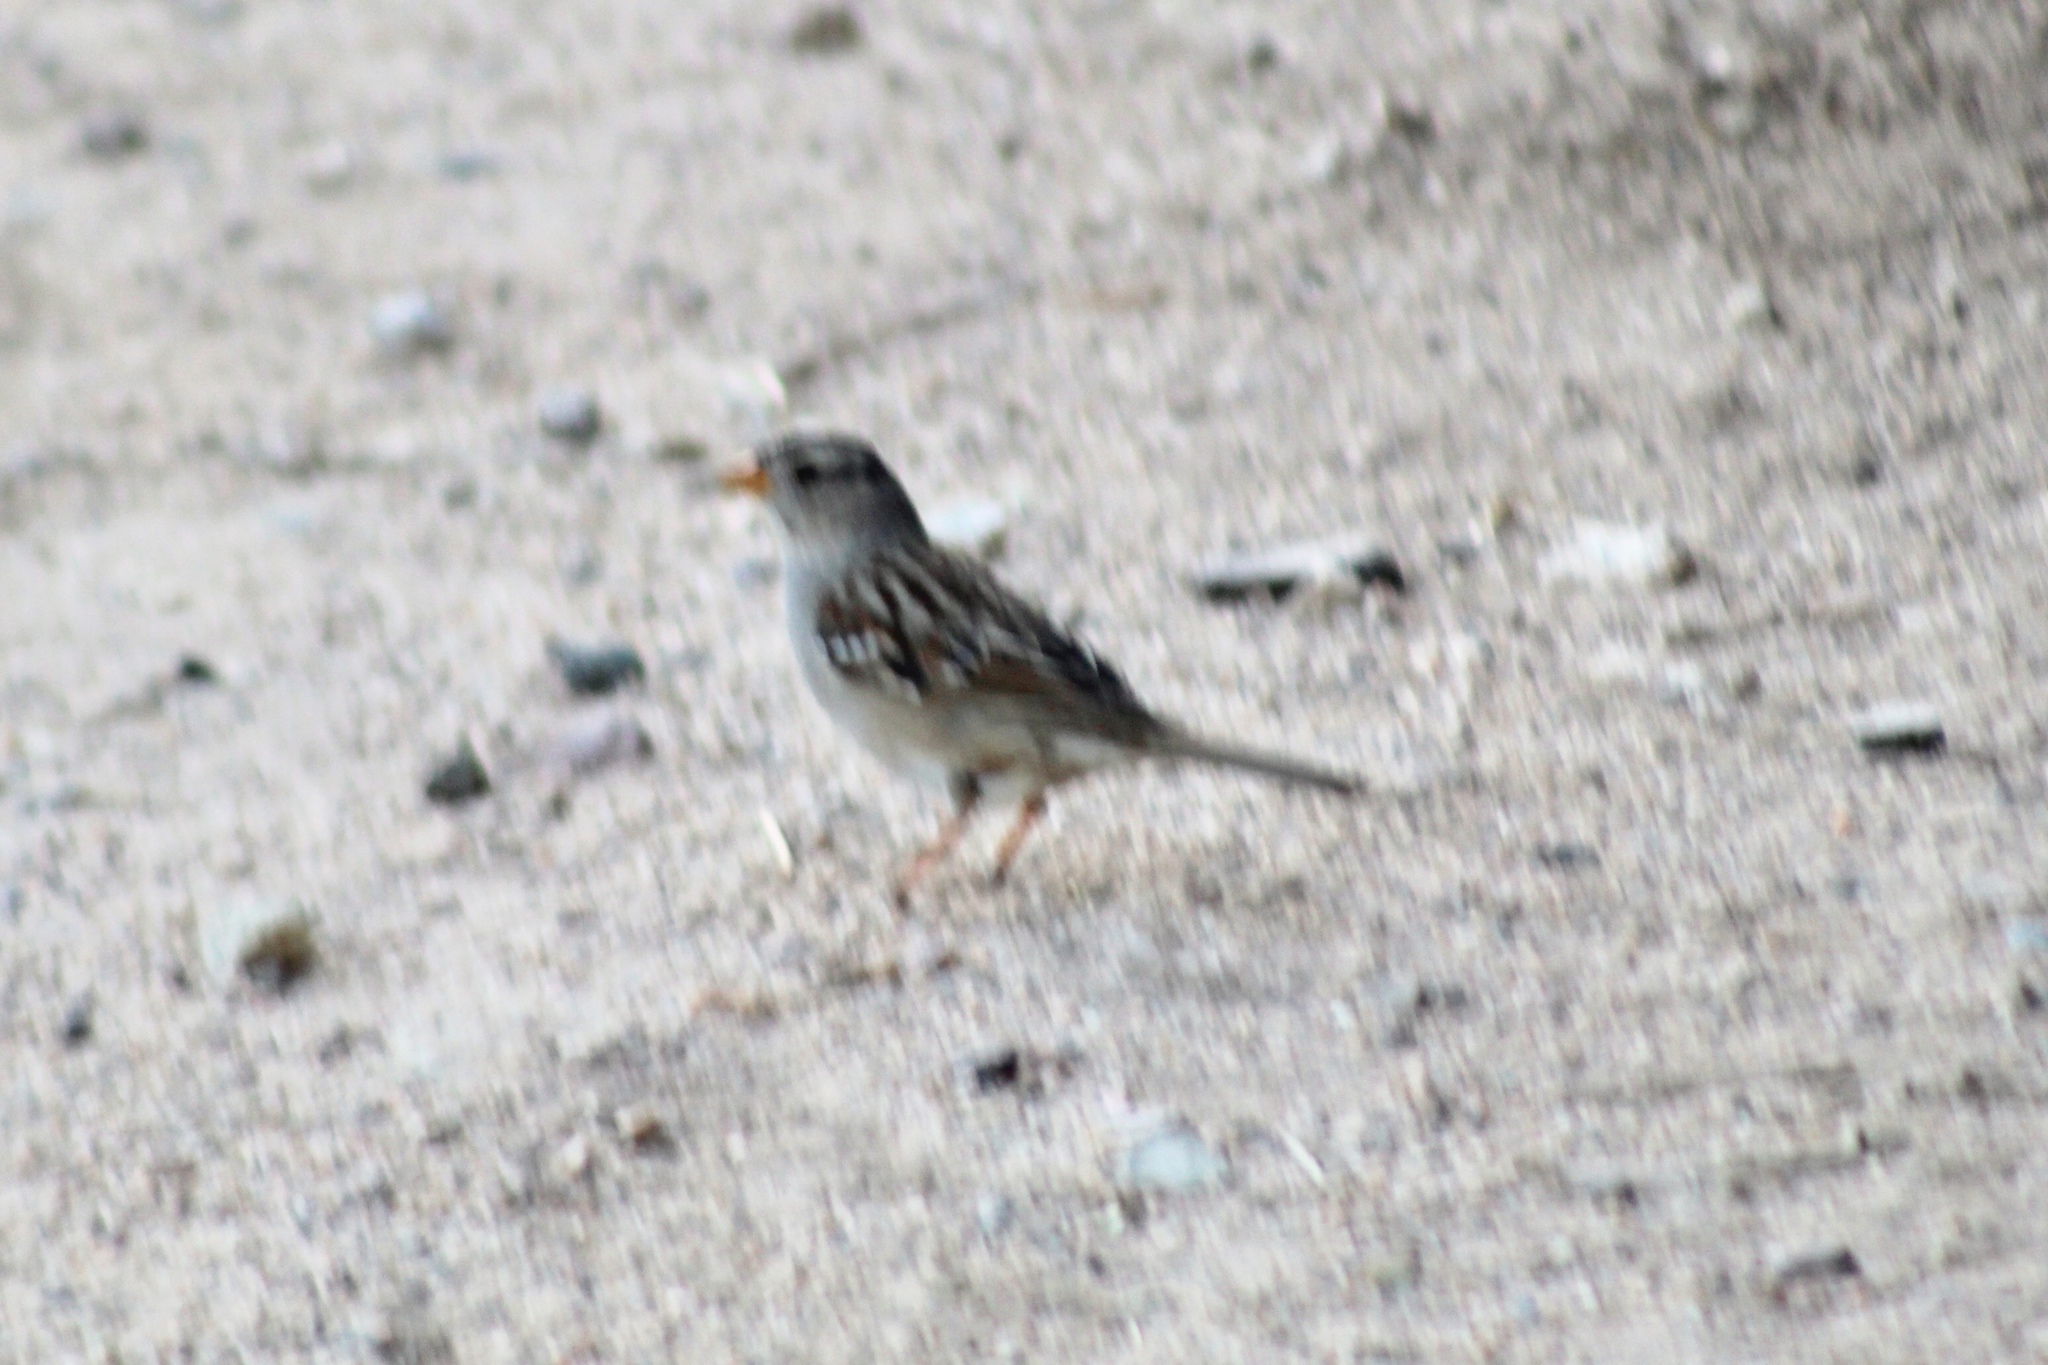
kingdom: Animalia
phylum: Chordata
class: Aves
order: Passeriformes
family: Passerellidae
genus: Zonotrichia
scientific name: Zonotrichia leucophrys
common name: White-crowned sparrow
